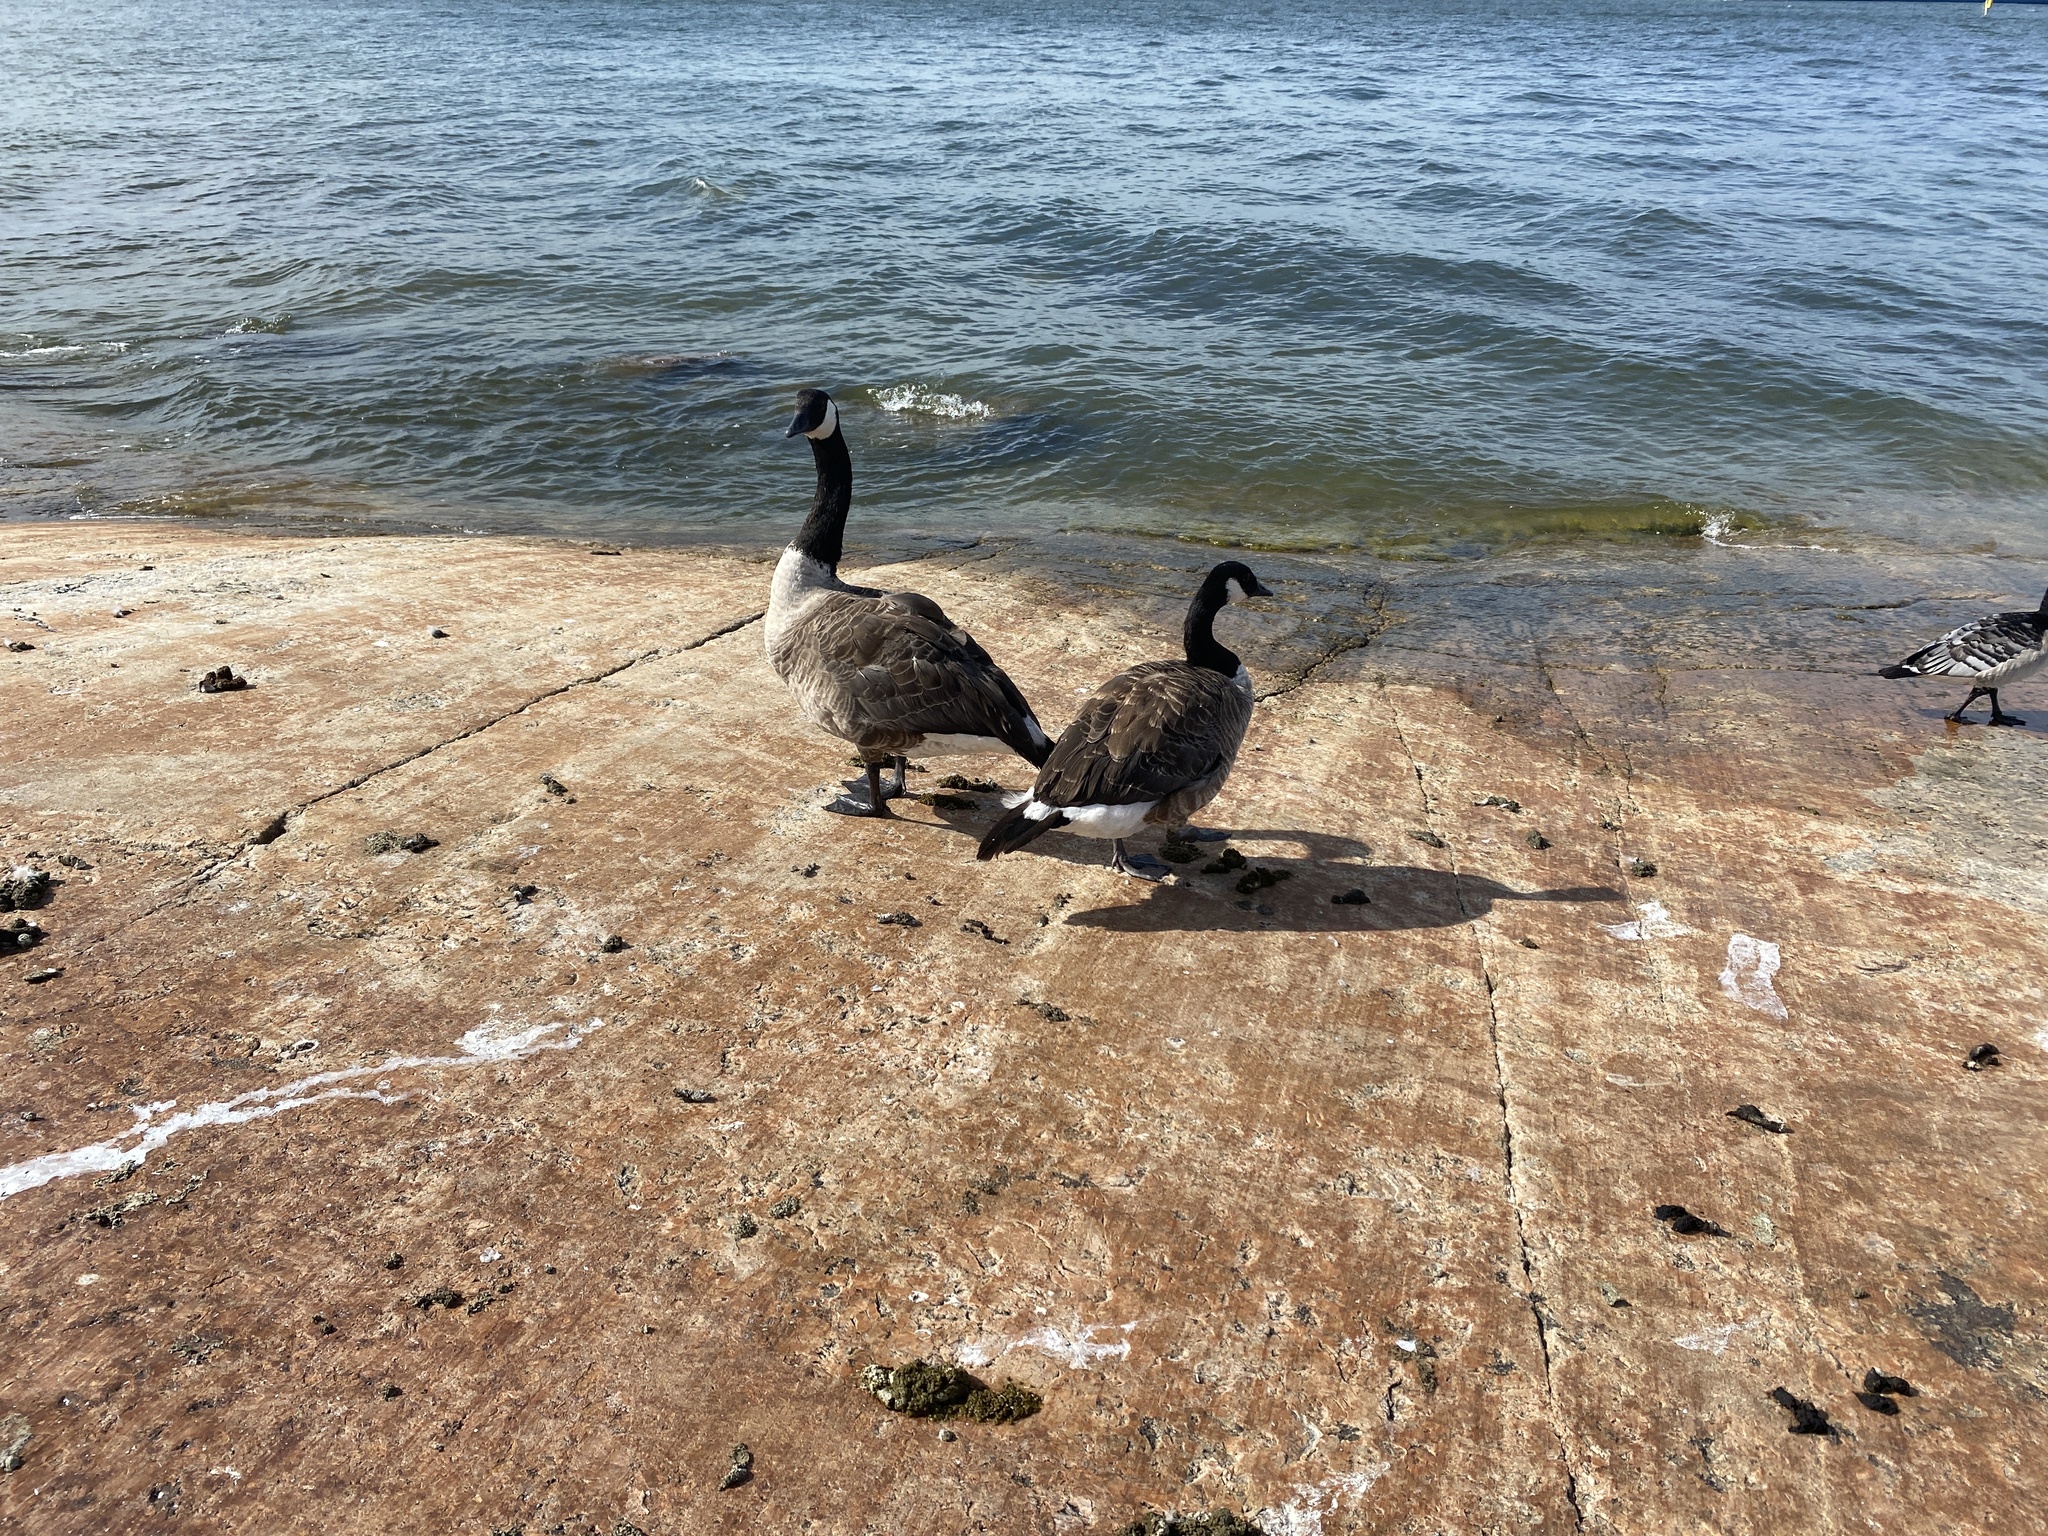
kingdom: Animalia
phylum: Chordata
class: Aves
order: Anseriformes
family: Anatidae
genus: Branta
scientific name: Branta canadensis
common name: Canada goose
